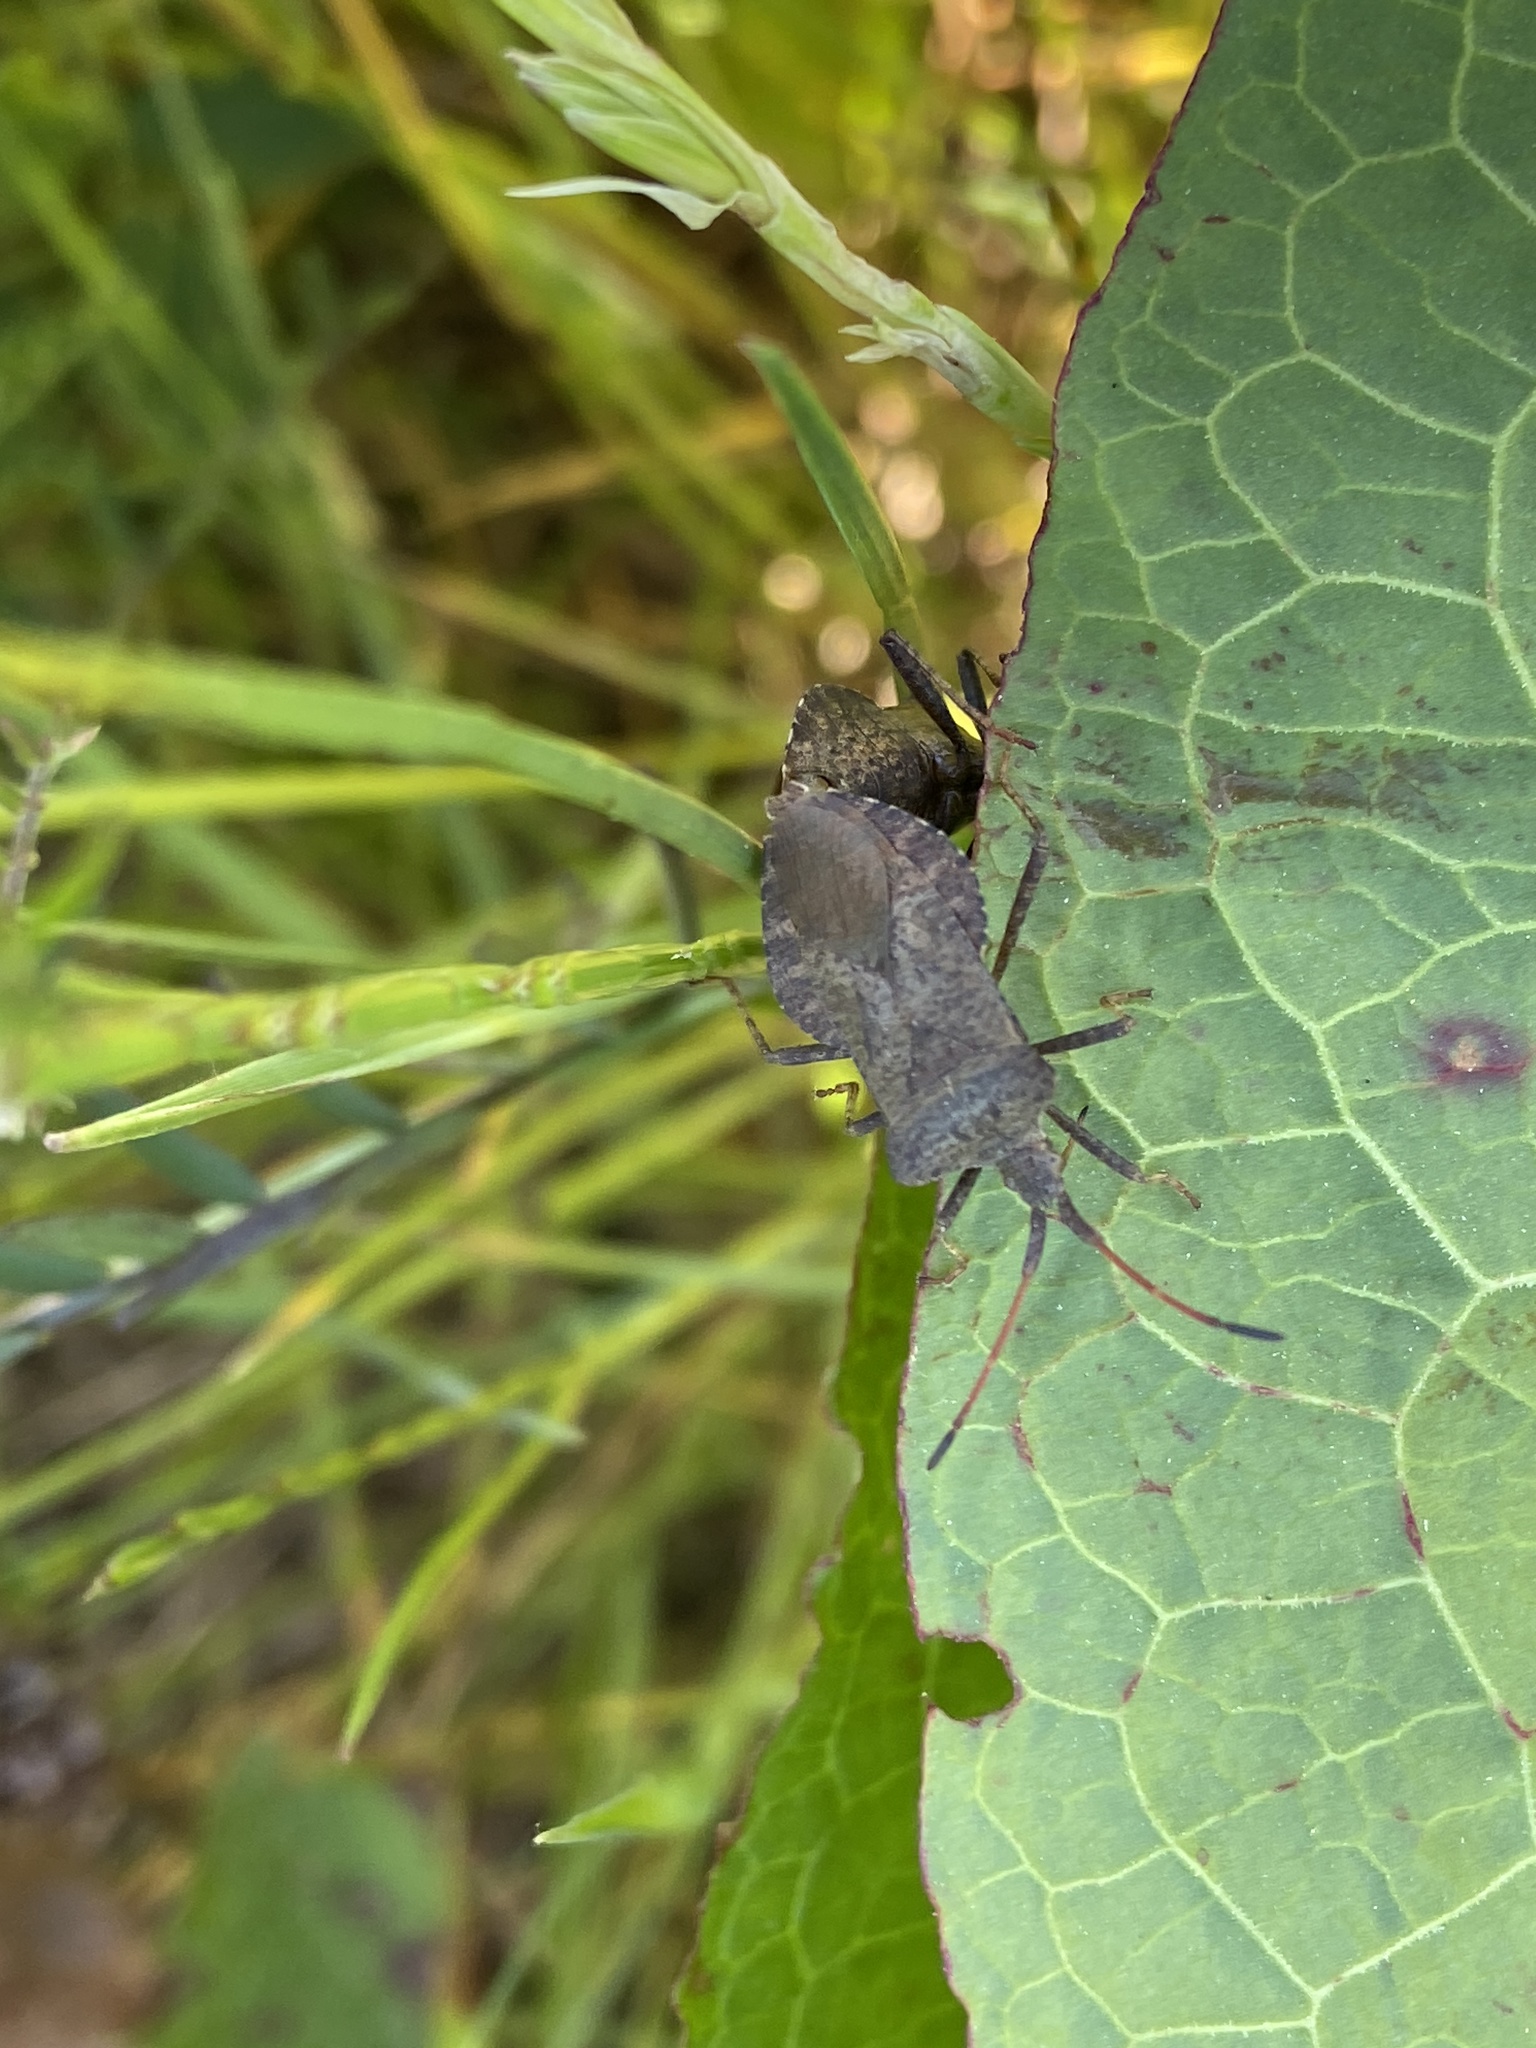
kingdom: Animalia
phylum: Arthropoda
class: Insecta
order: Hemiptera
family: Coreidae
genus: Coreus
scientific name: Coreus marginatus
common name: Dock bug
